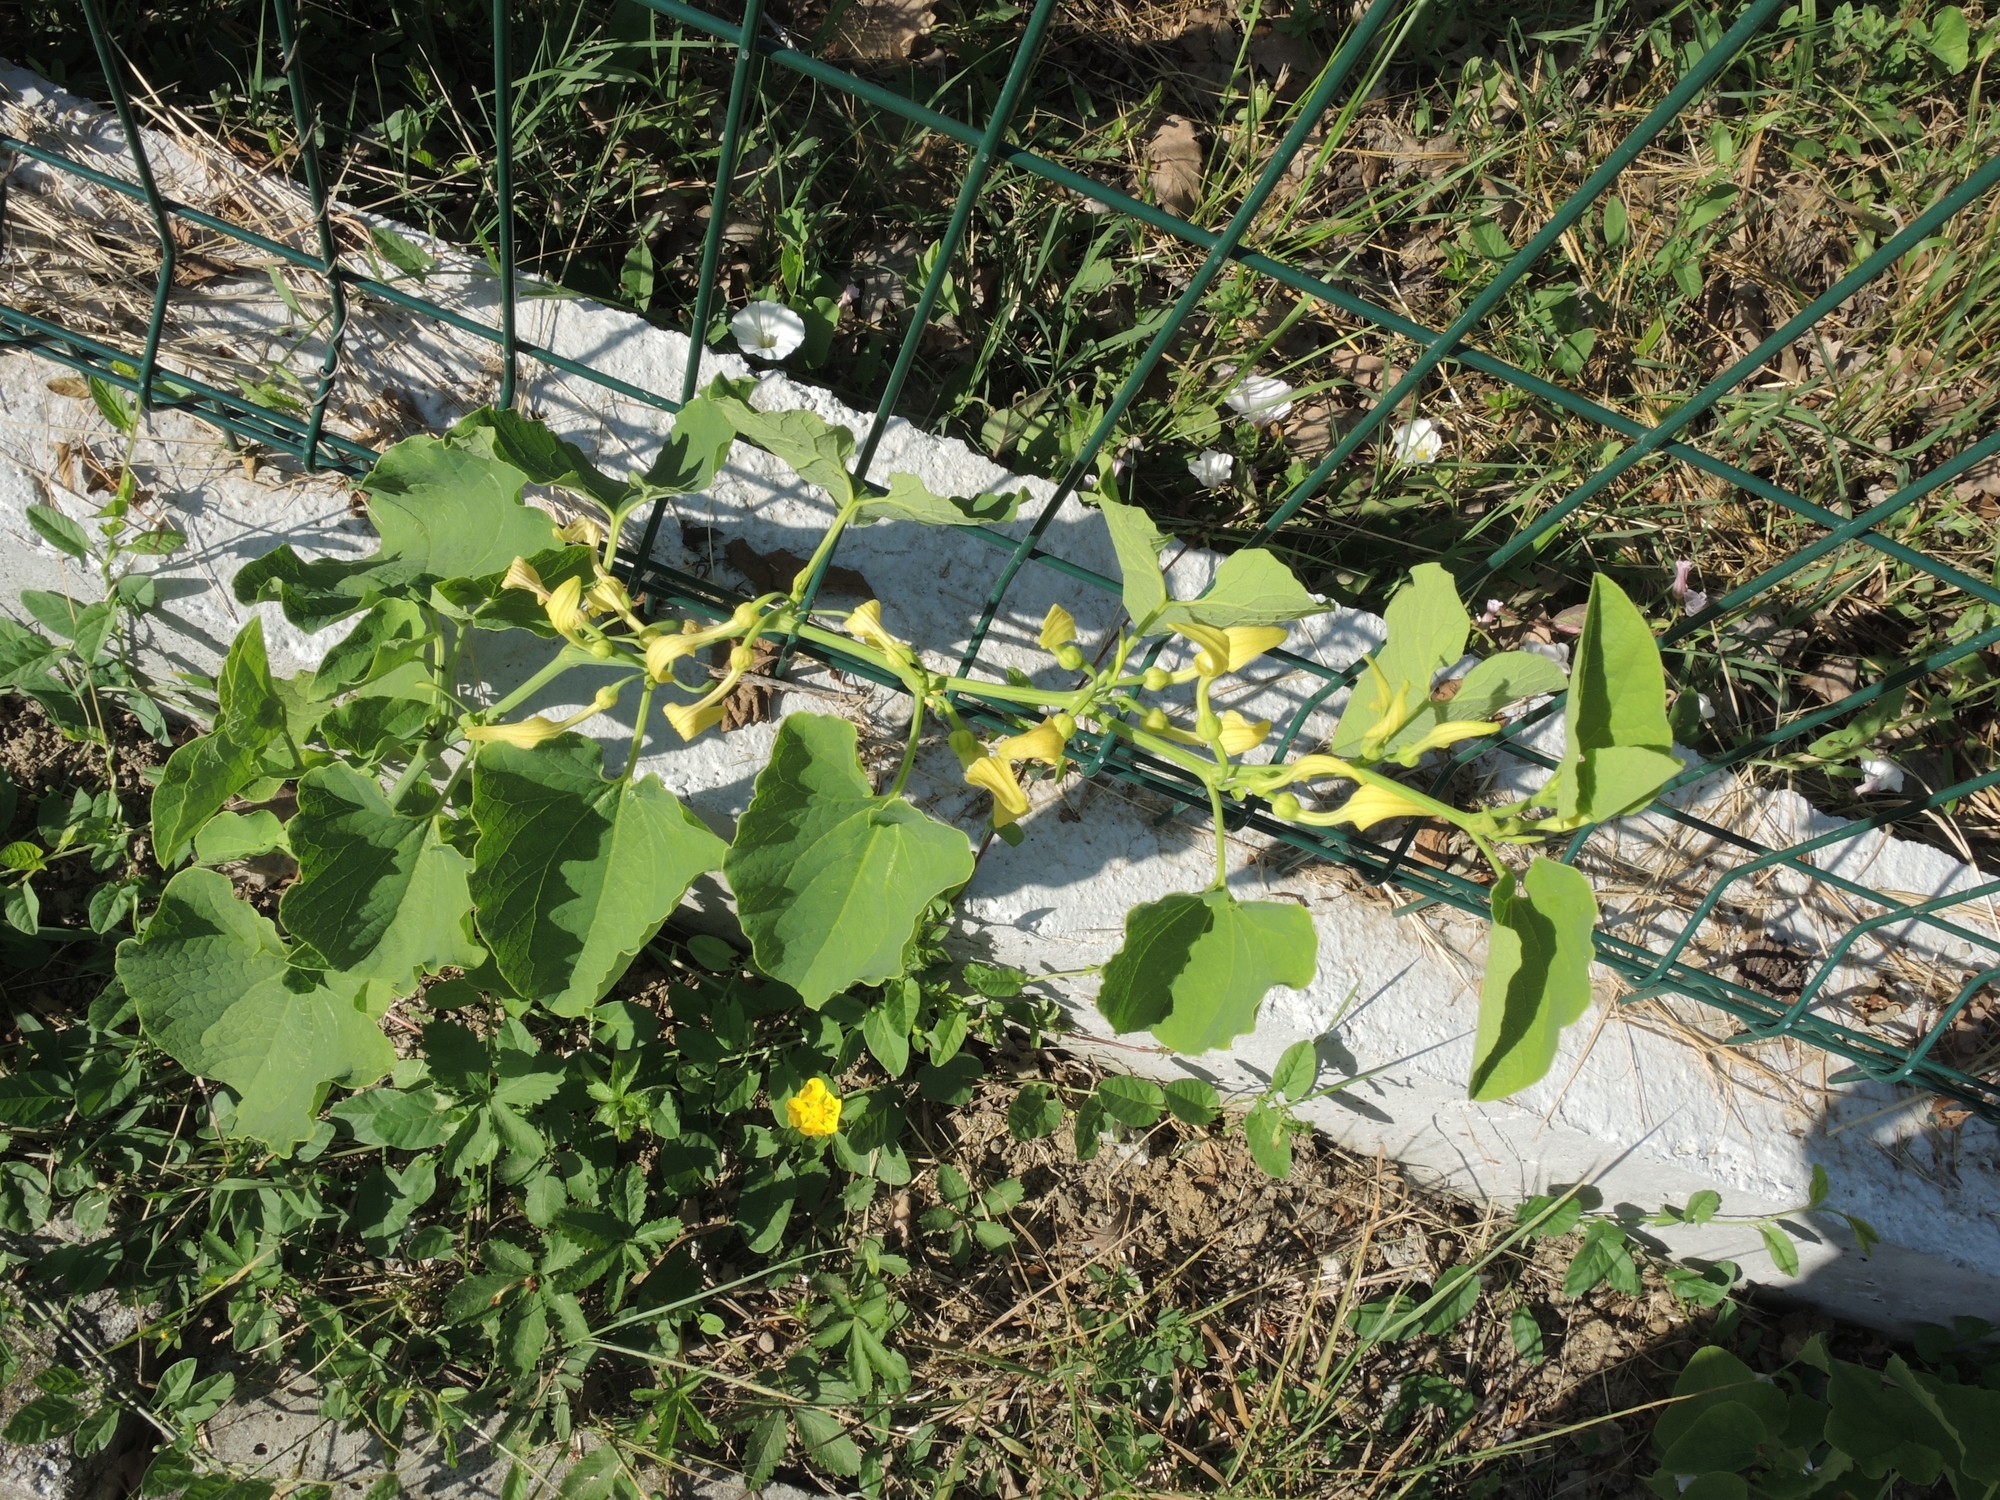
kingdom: Plantae
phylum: Tracheophyta
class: Magnoliopsida
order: Piperales
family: Aristolochiaceae
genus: Aristolochia
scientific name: Aristolochia clematitis
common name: Birthwort
